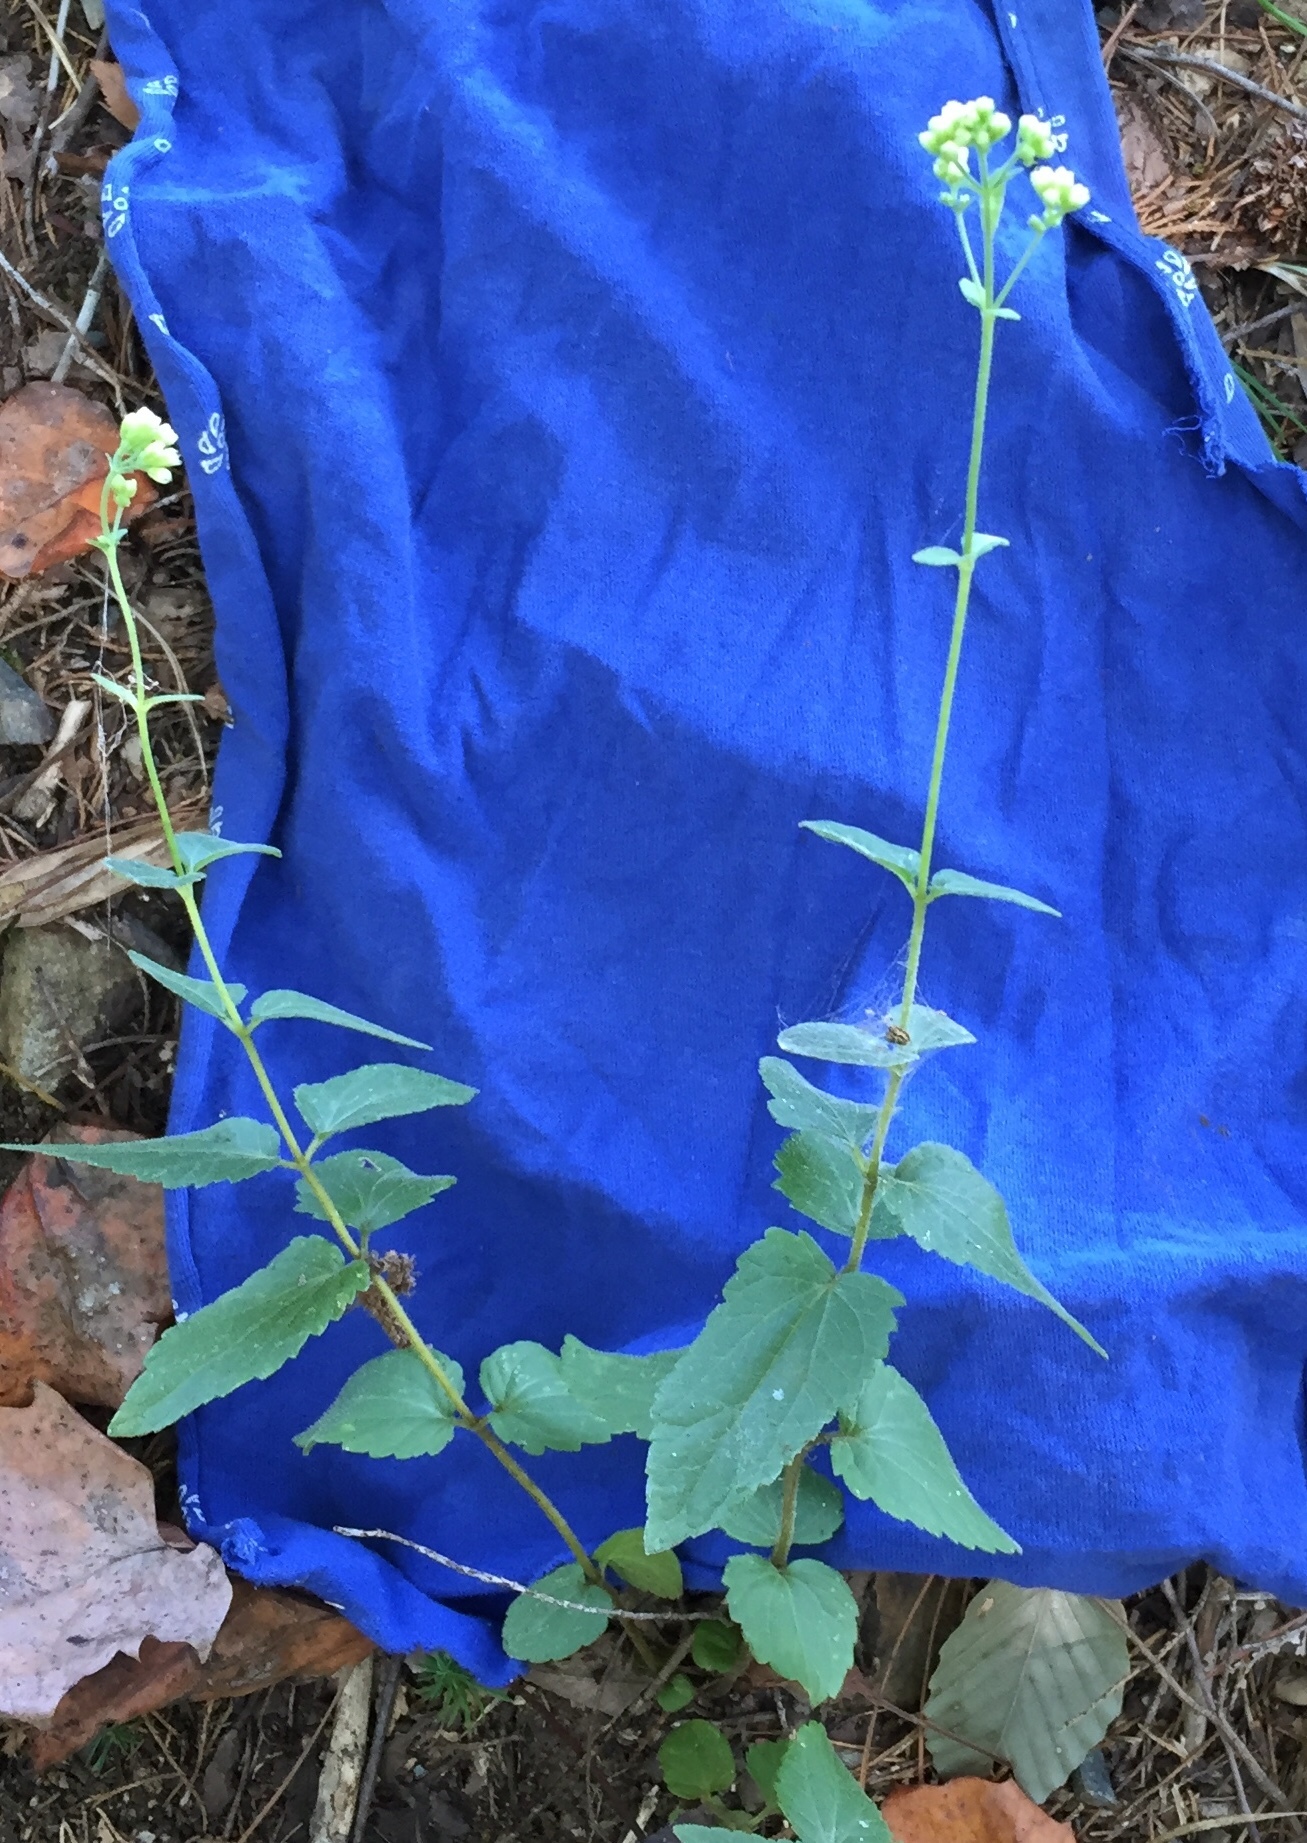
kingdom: Plantae
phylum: Tracheophyta
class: Magnoliopsida
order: Asterales
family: Asteraceae
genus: Ageratina
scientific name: Ageratina aromatica
